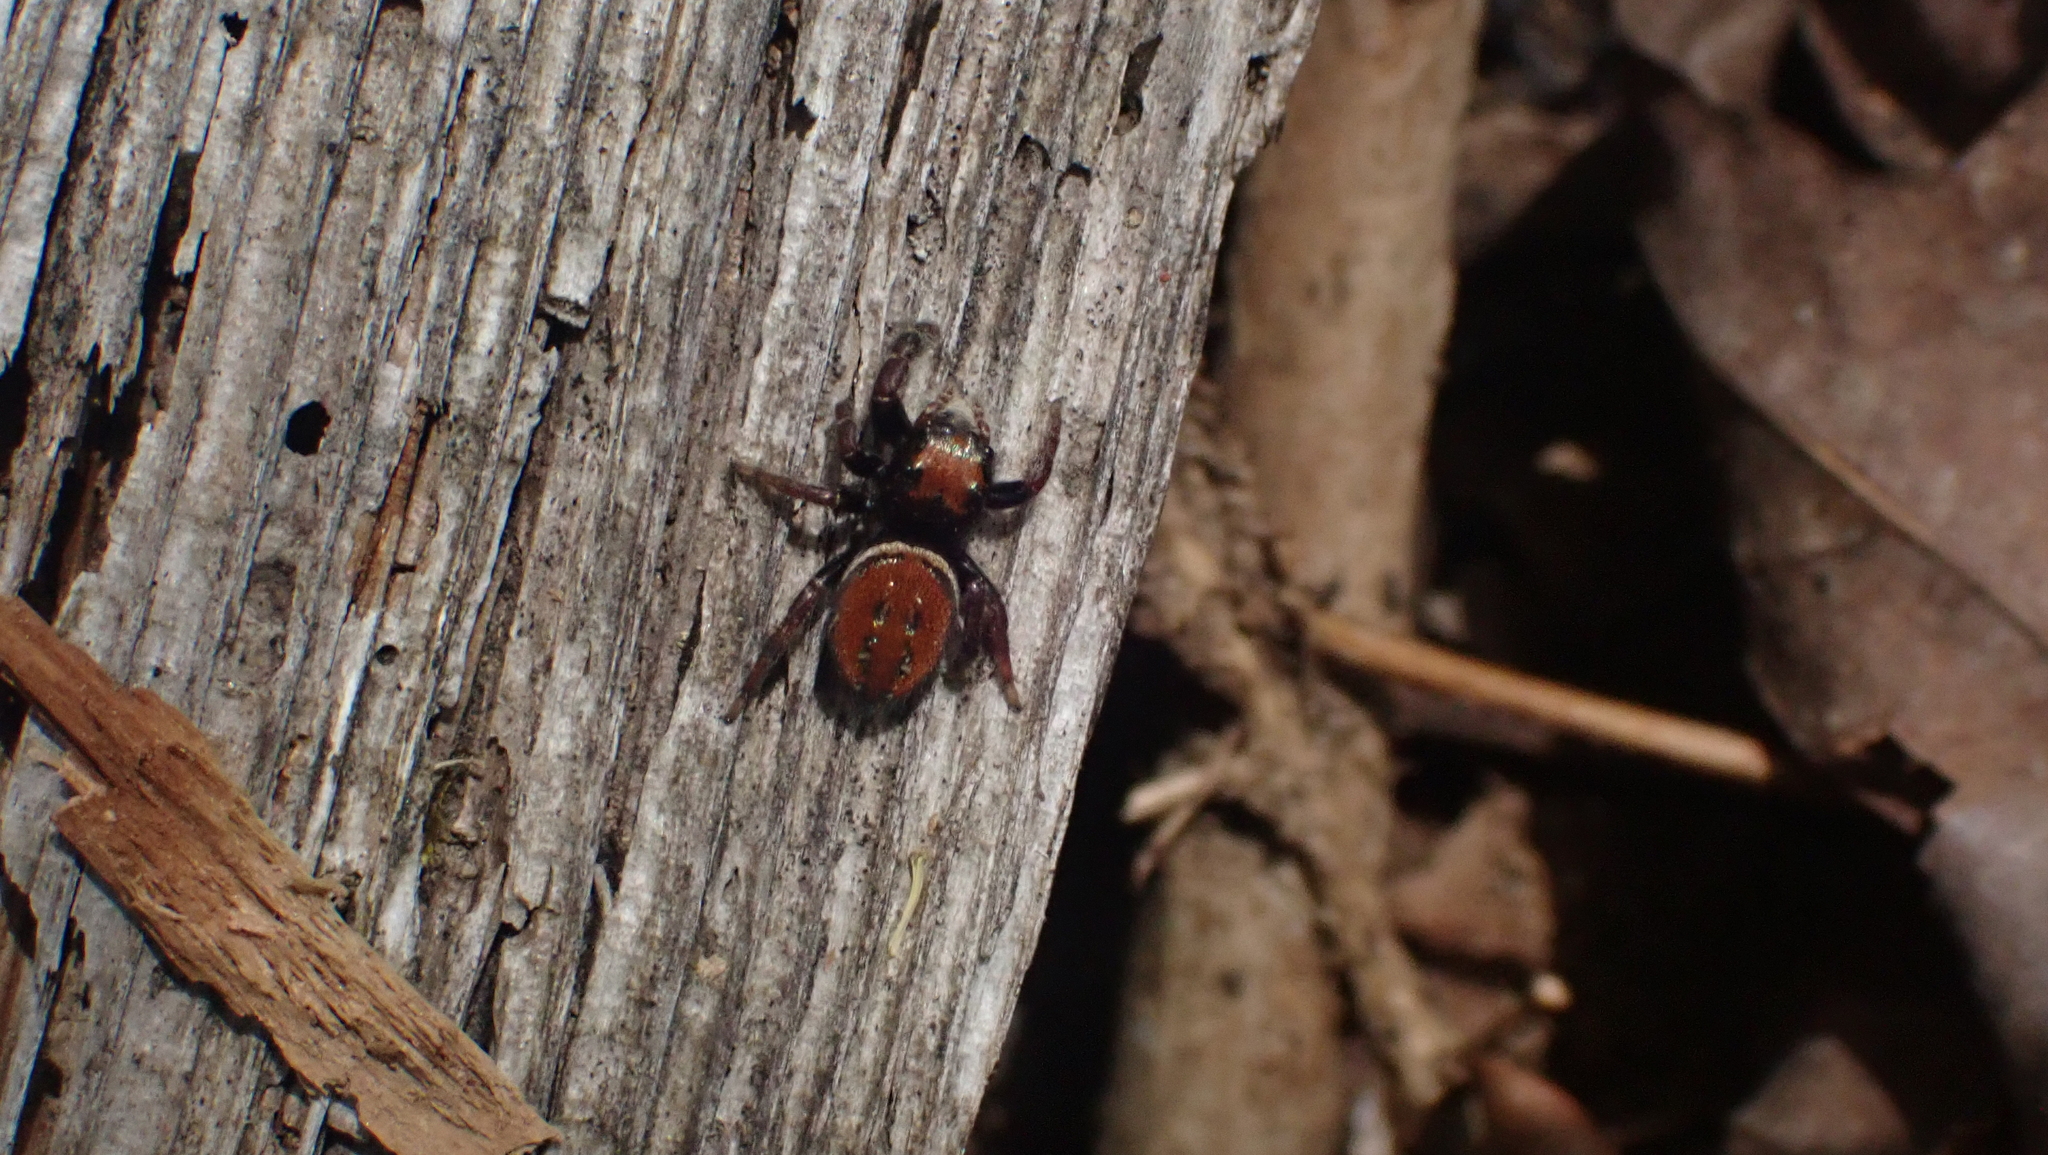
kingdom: Animalia
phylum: Arthropoda
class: Arachnida
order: Araneae
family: Salticidae
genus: Phidippus
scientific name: Phidippus whitmani
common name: Whitman's jumping spider
